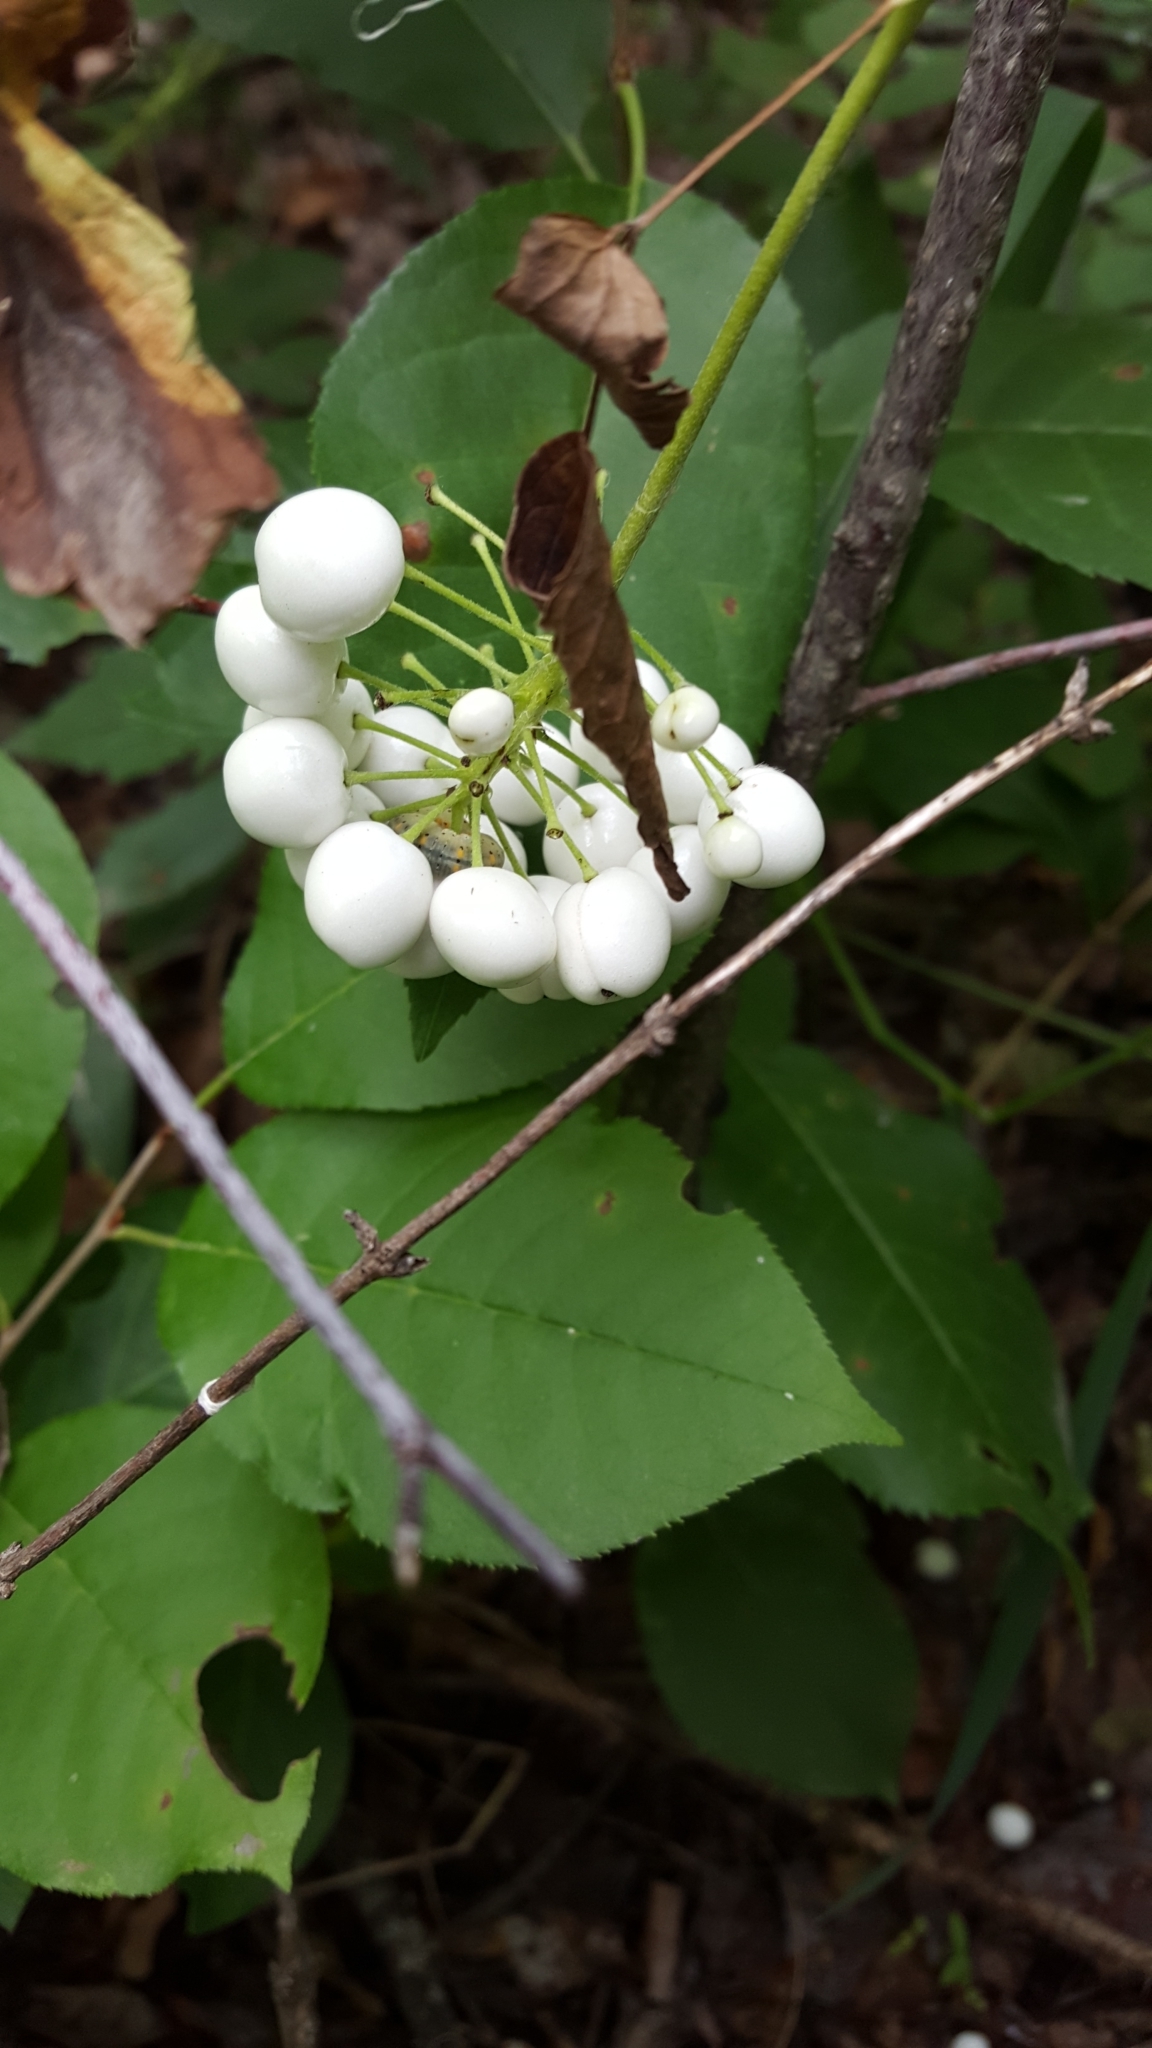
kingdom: Plantae
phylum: Tracheophyta
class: Magnoliopsida
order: Ranunculales
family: Ranunculaceae
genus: Actaea
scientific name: Actaea rubra
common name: Red baneberry
